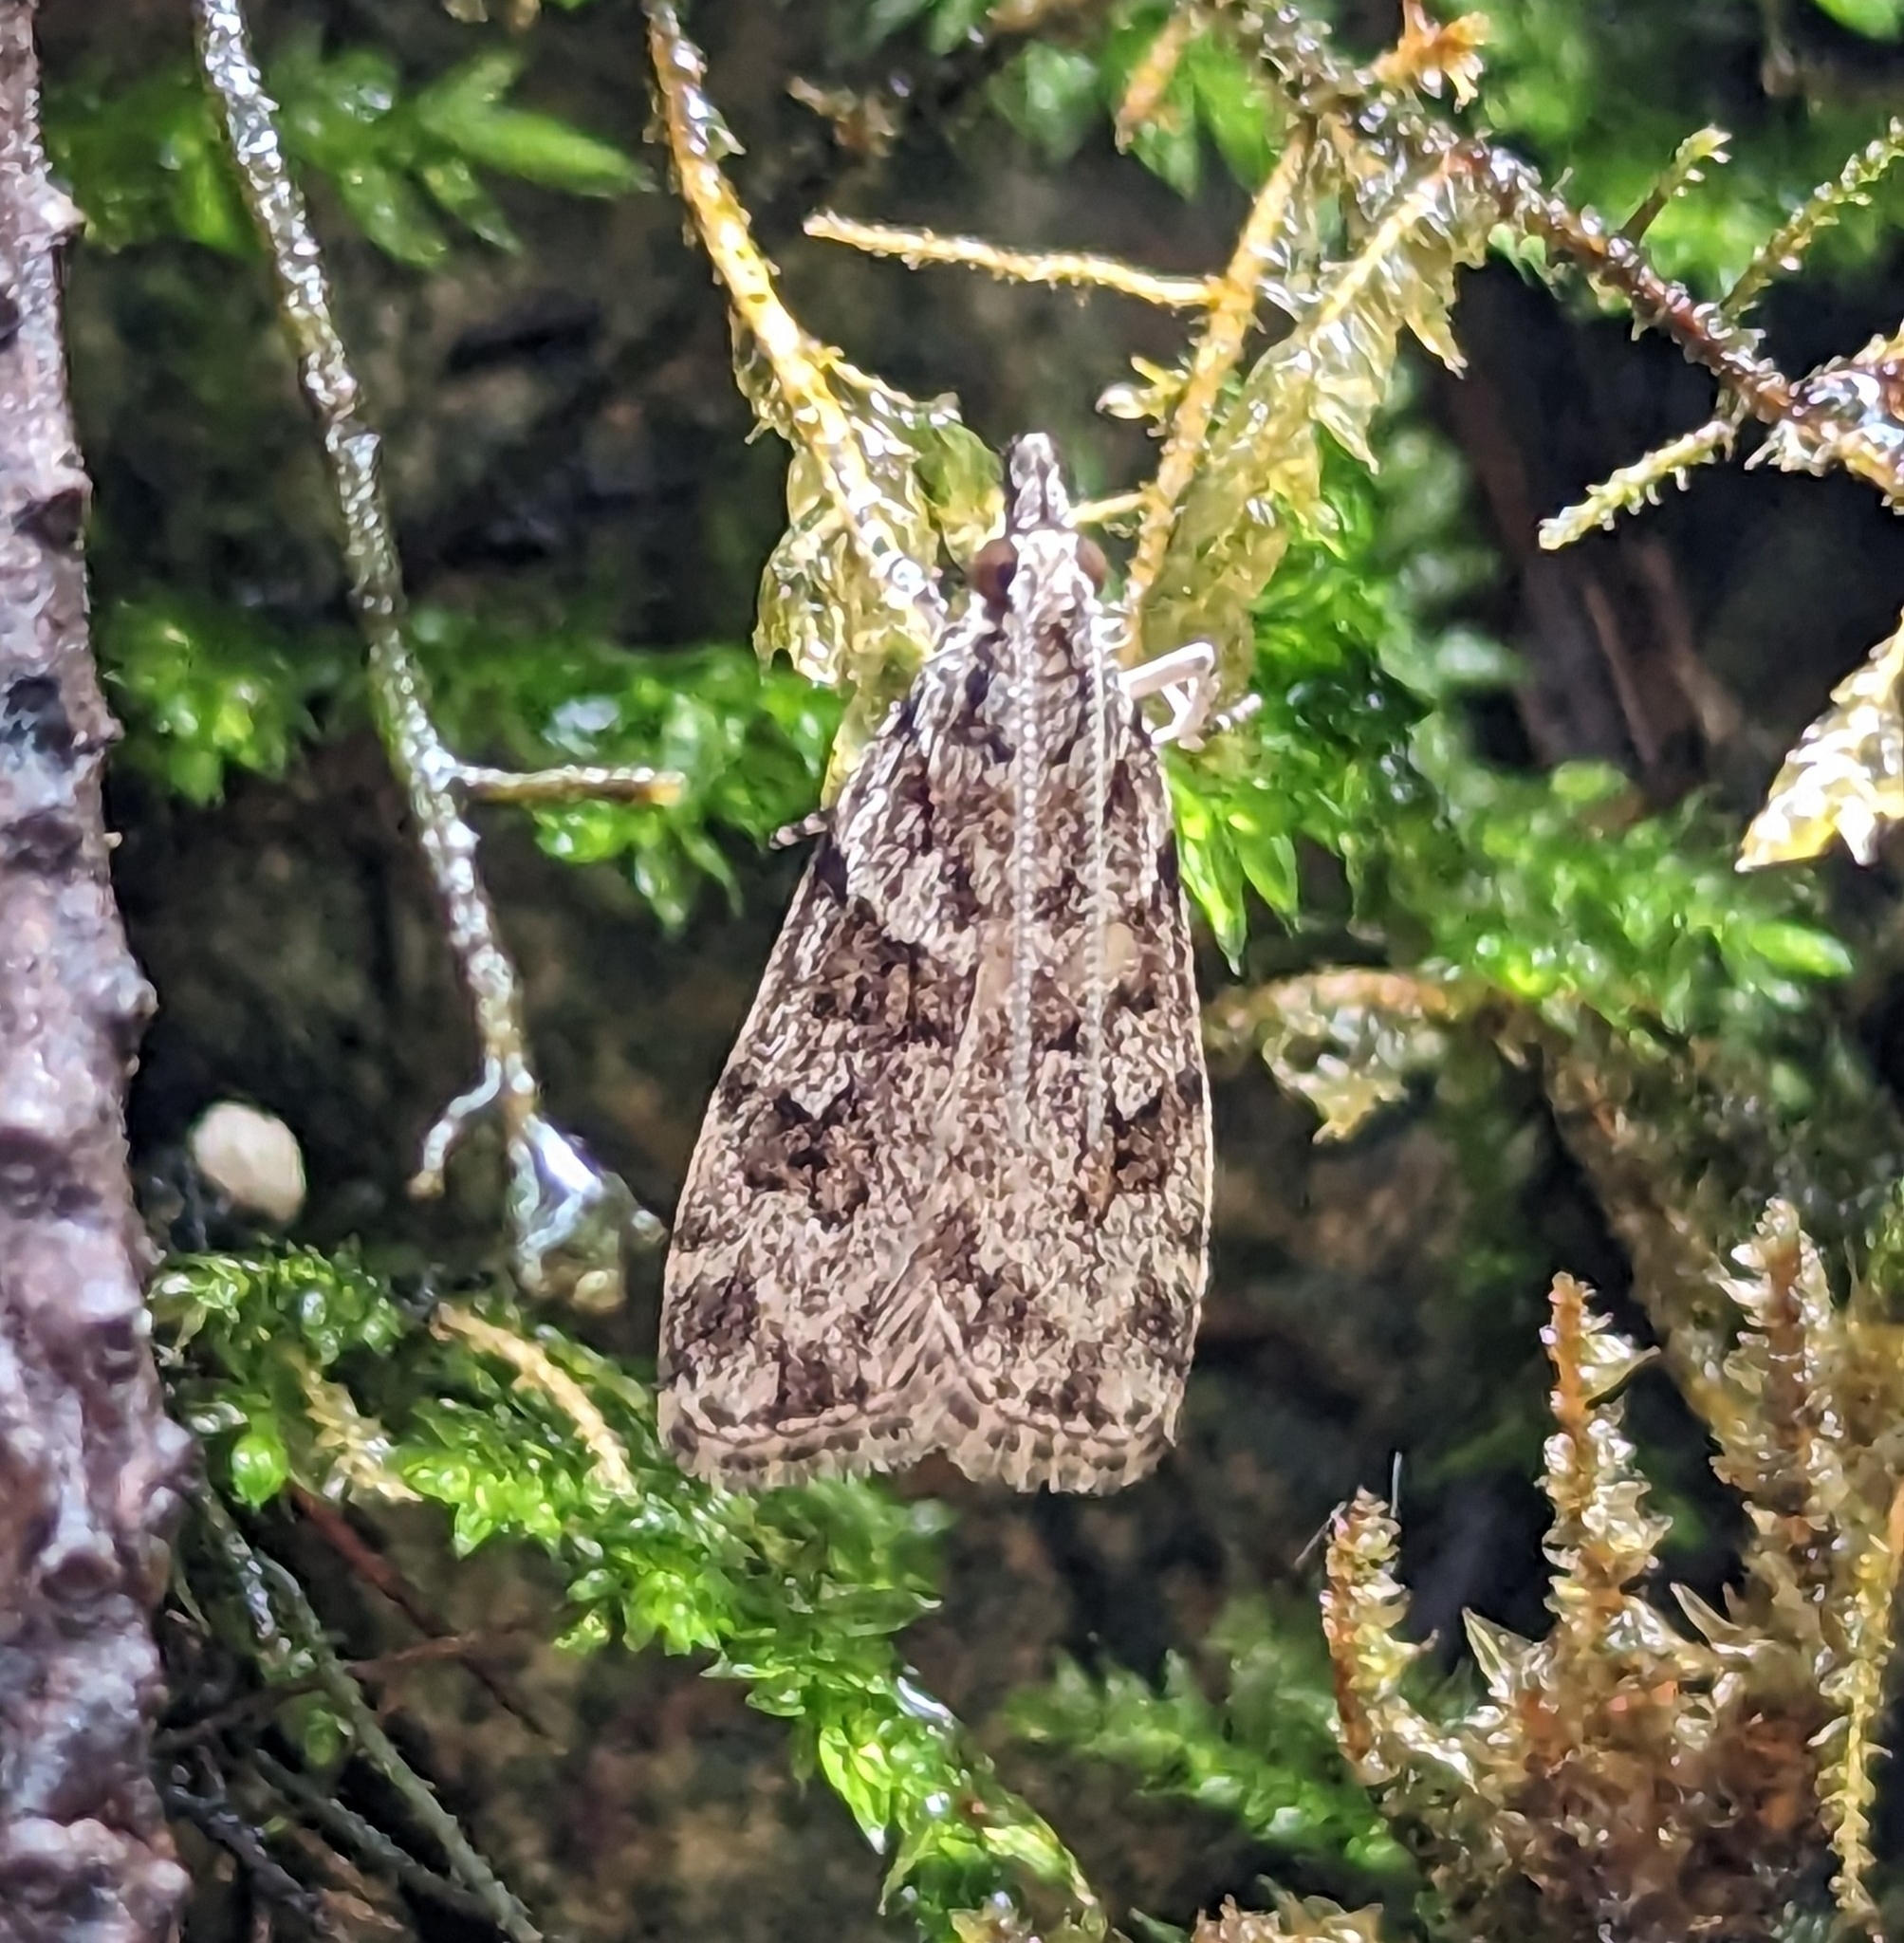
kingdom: Animalia
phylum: Arthropoda
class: Insecta
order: Lepidoptera
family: Crambidae
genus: Scoparia
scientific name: Scoparia biplagialis
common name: Double-striped scoparia moth
